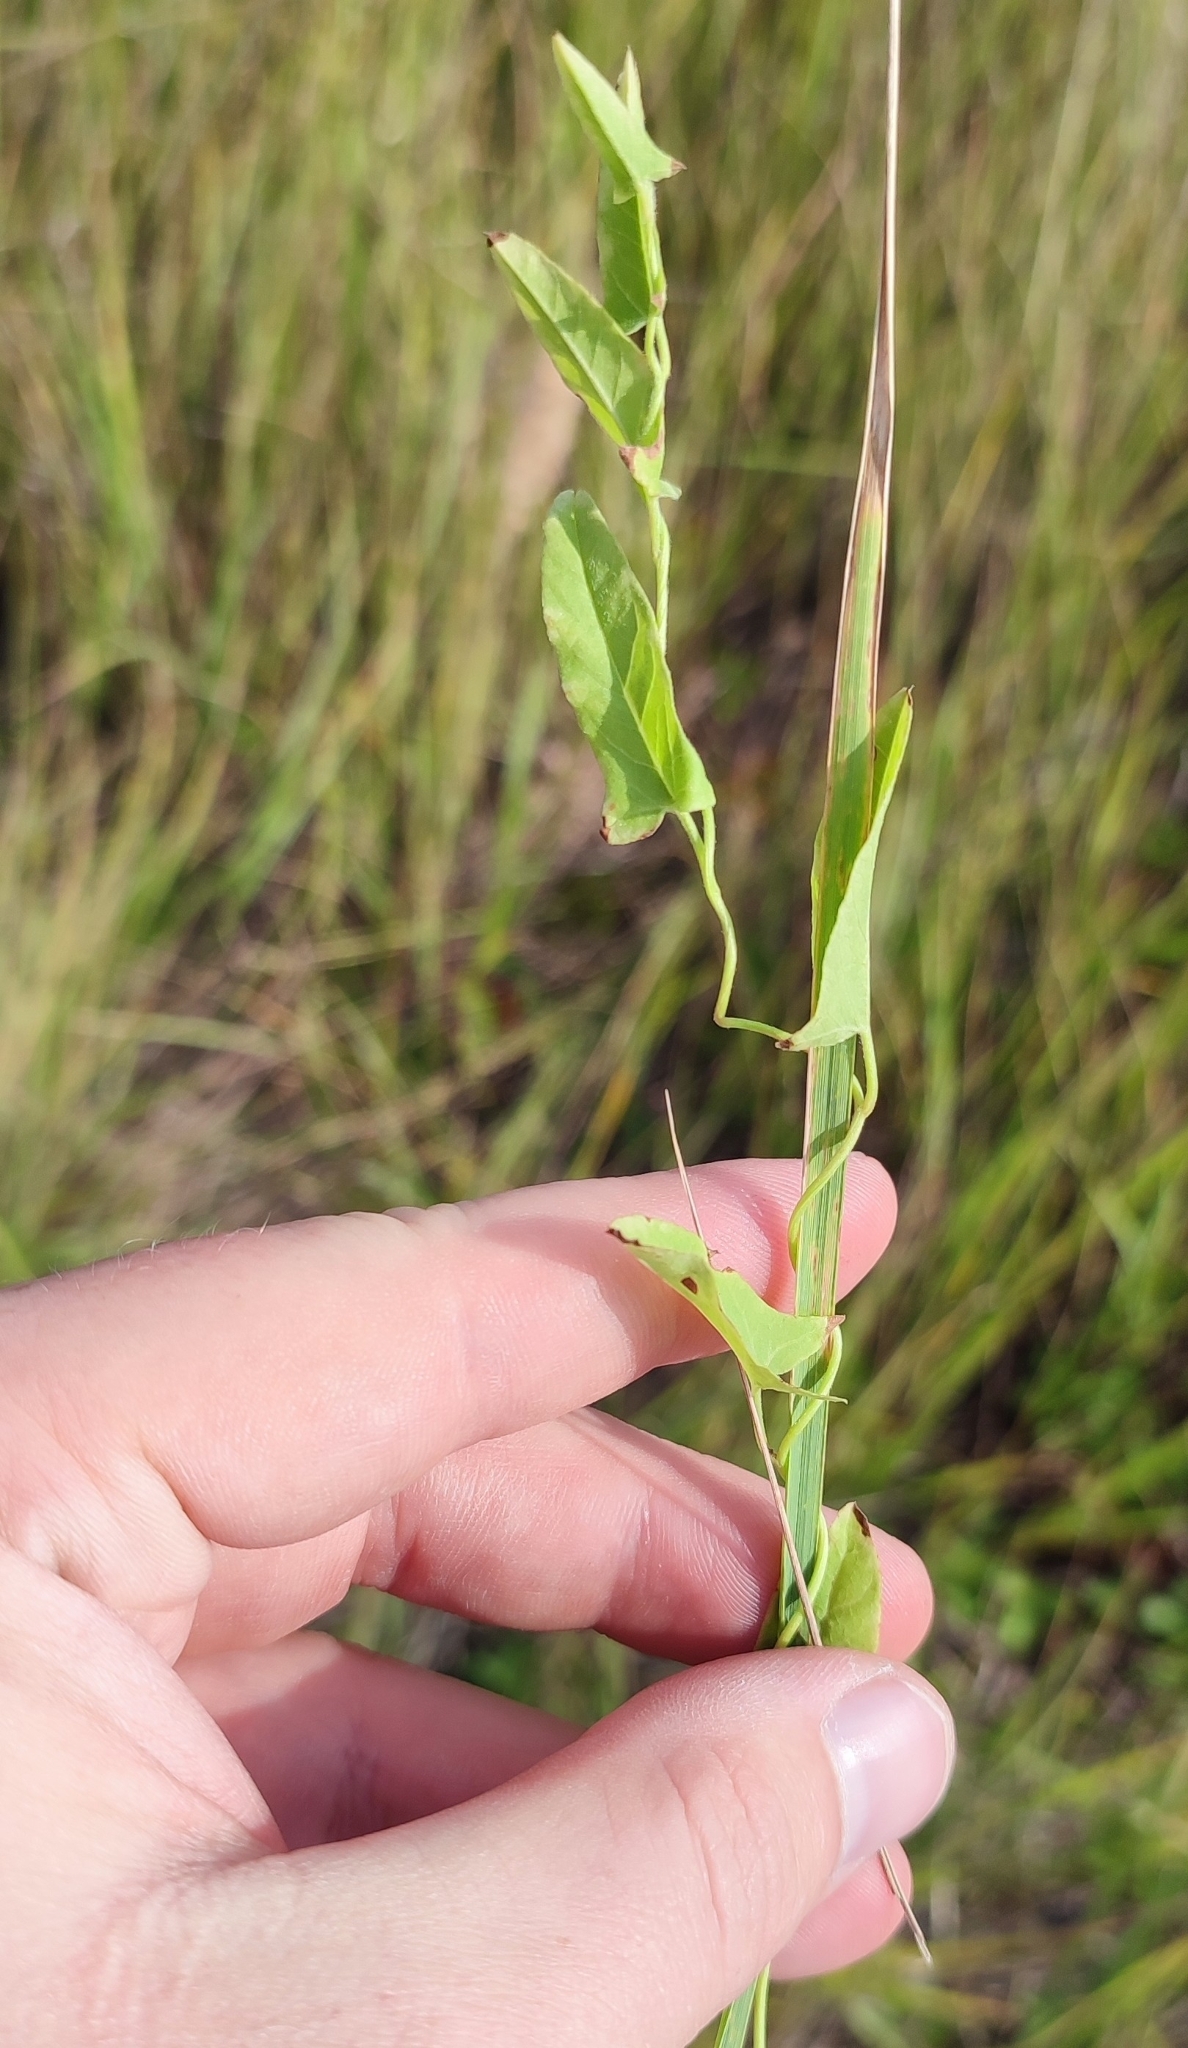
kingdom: Plantae
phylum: Tracheophyta
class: Magnoliopsida
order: Solanales
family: Convolvulaceae
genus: Convolvulus
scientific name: Convolvulus arvensis
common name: Field bindweed
